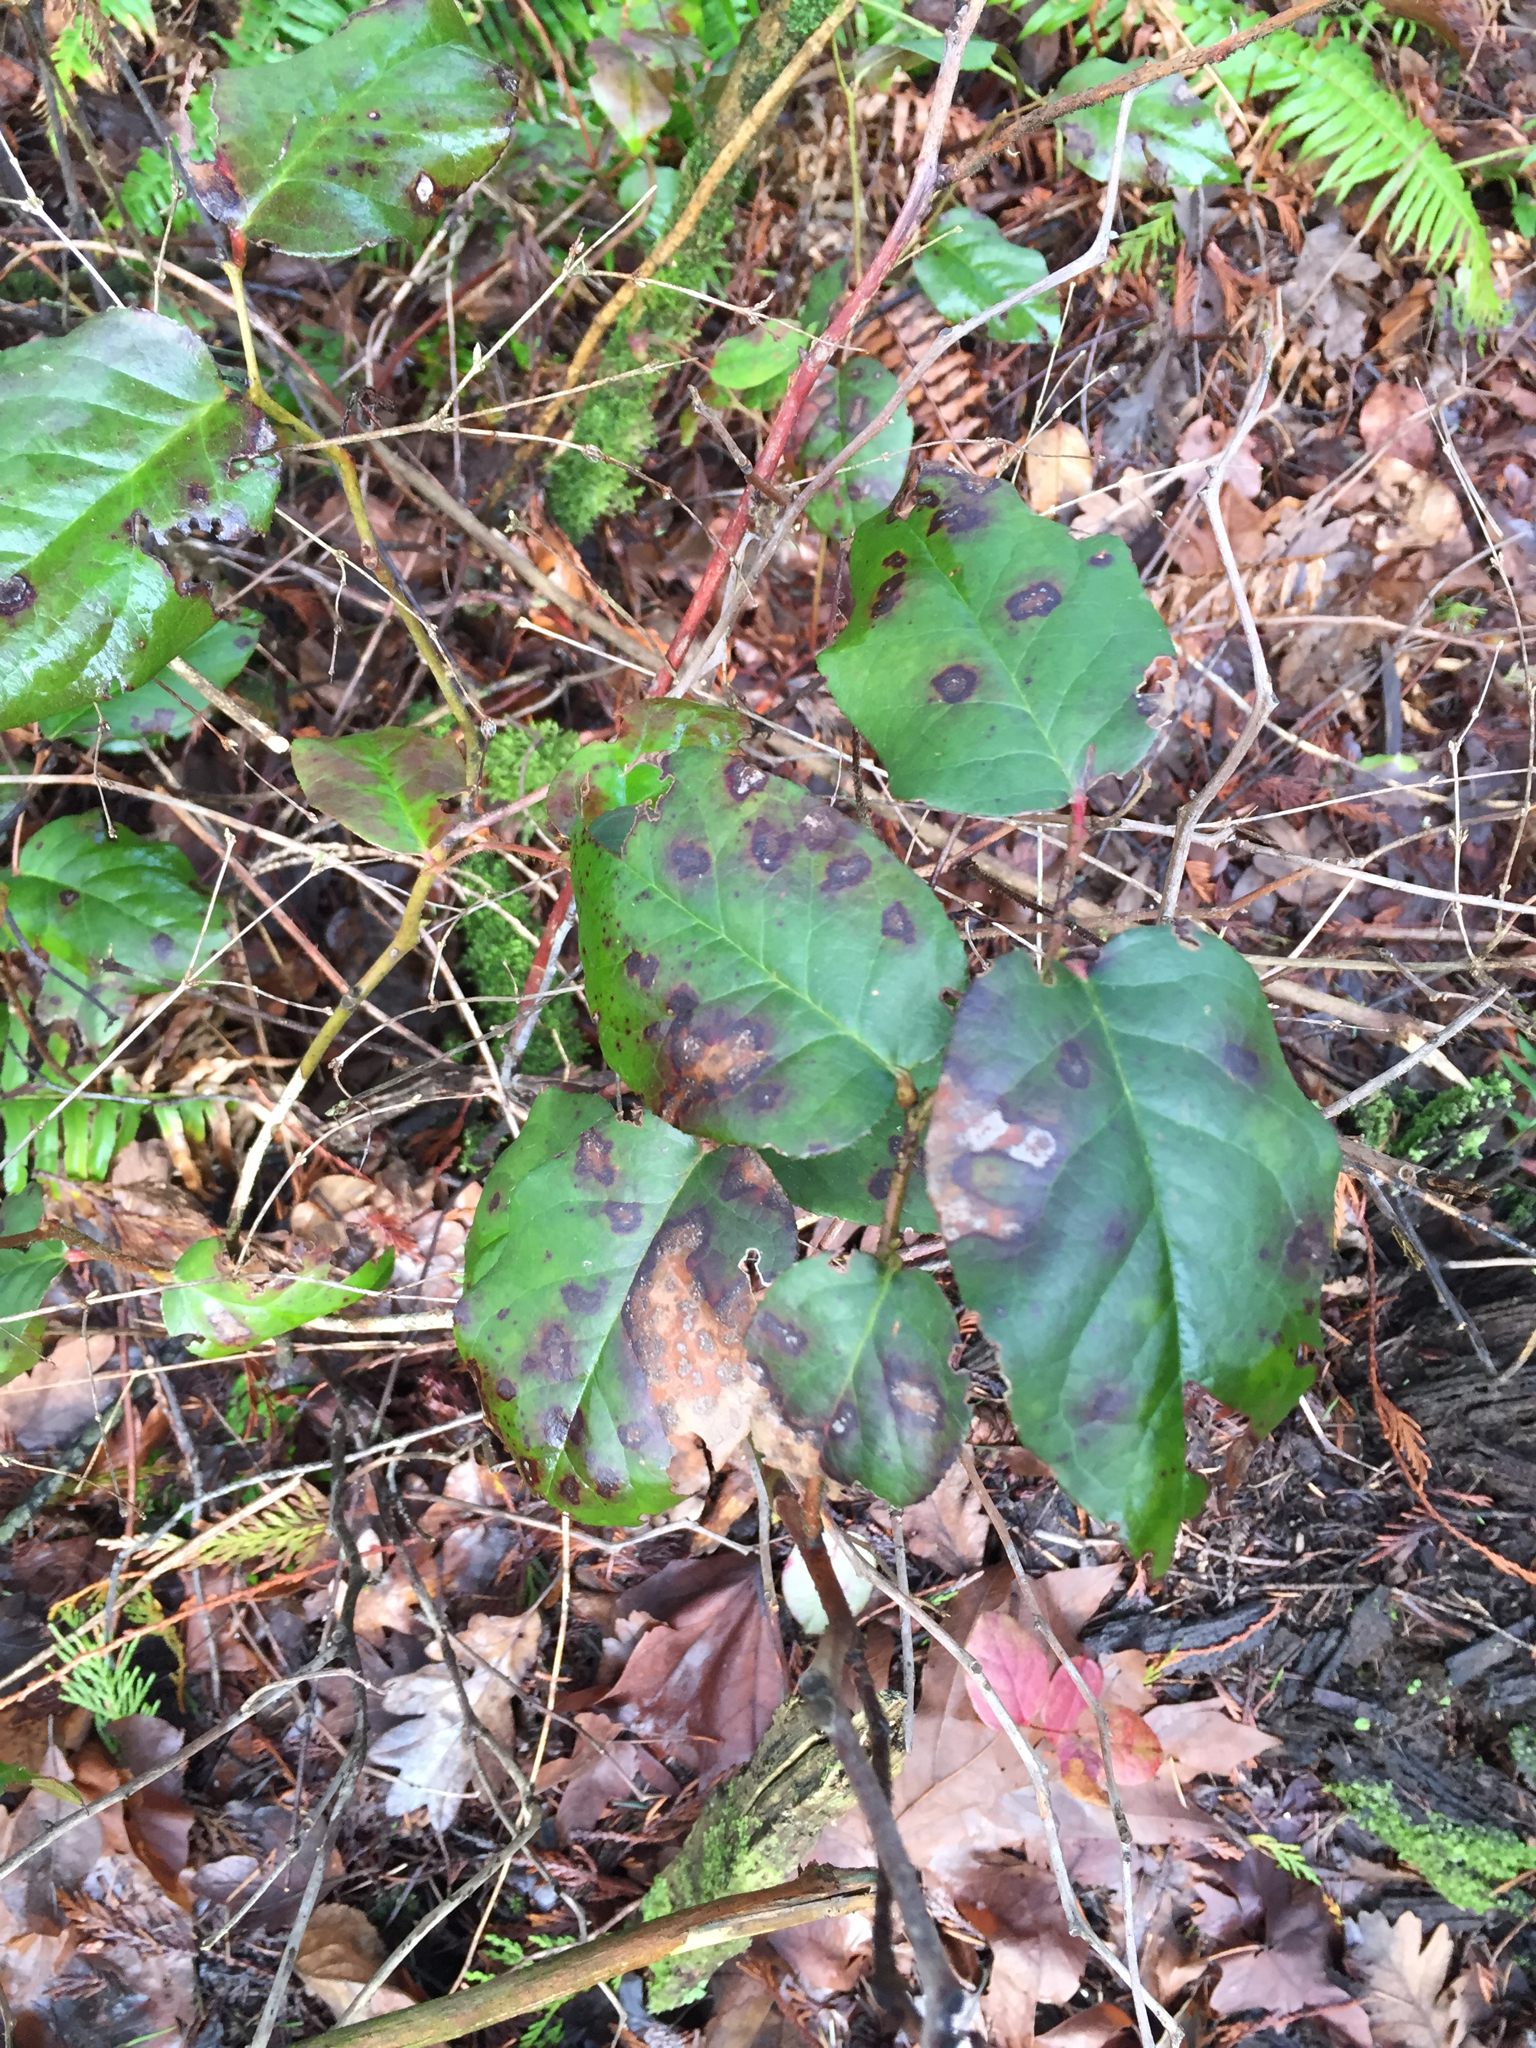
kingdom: Plantae
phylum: Tracheophyta
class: Magnoliopsida
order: Ericales
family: Ericaceae
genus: Gaultheria
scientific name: Gaultheria shallon
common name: Shallon
